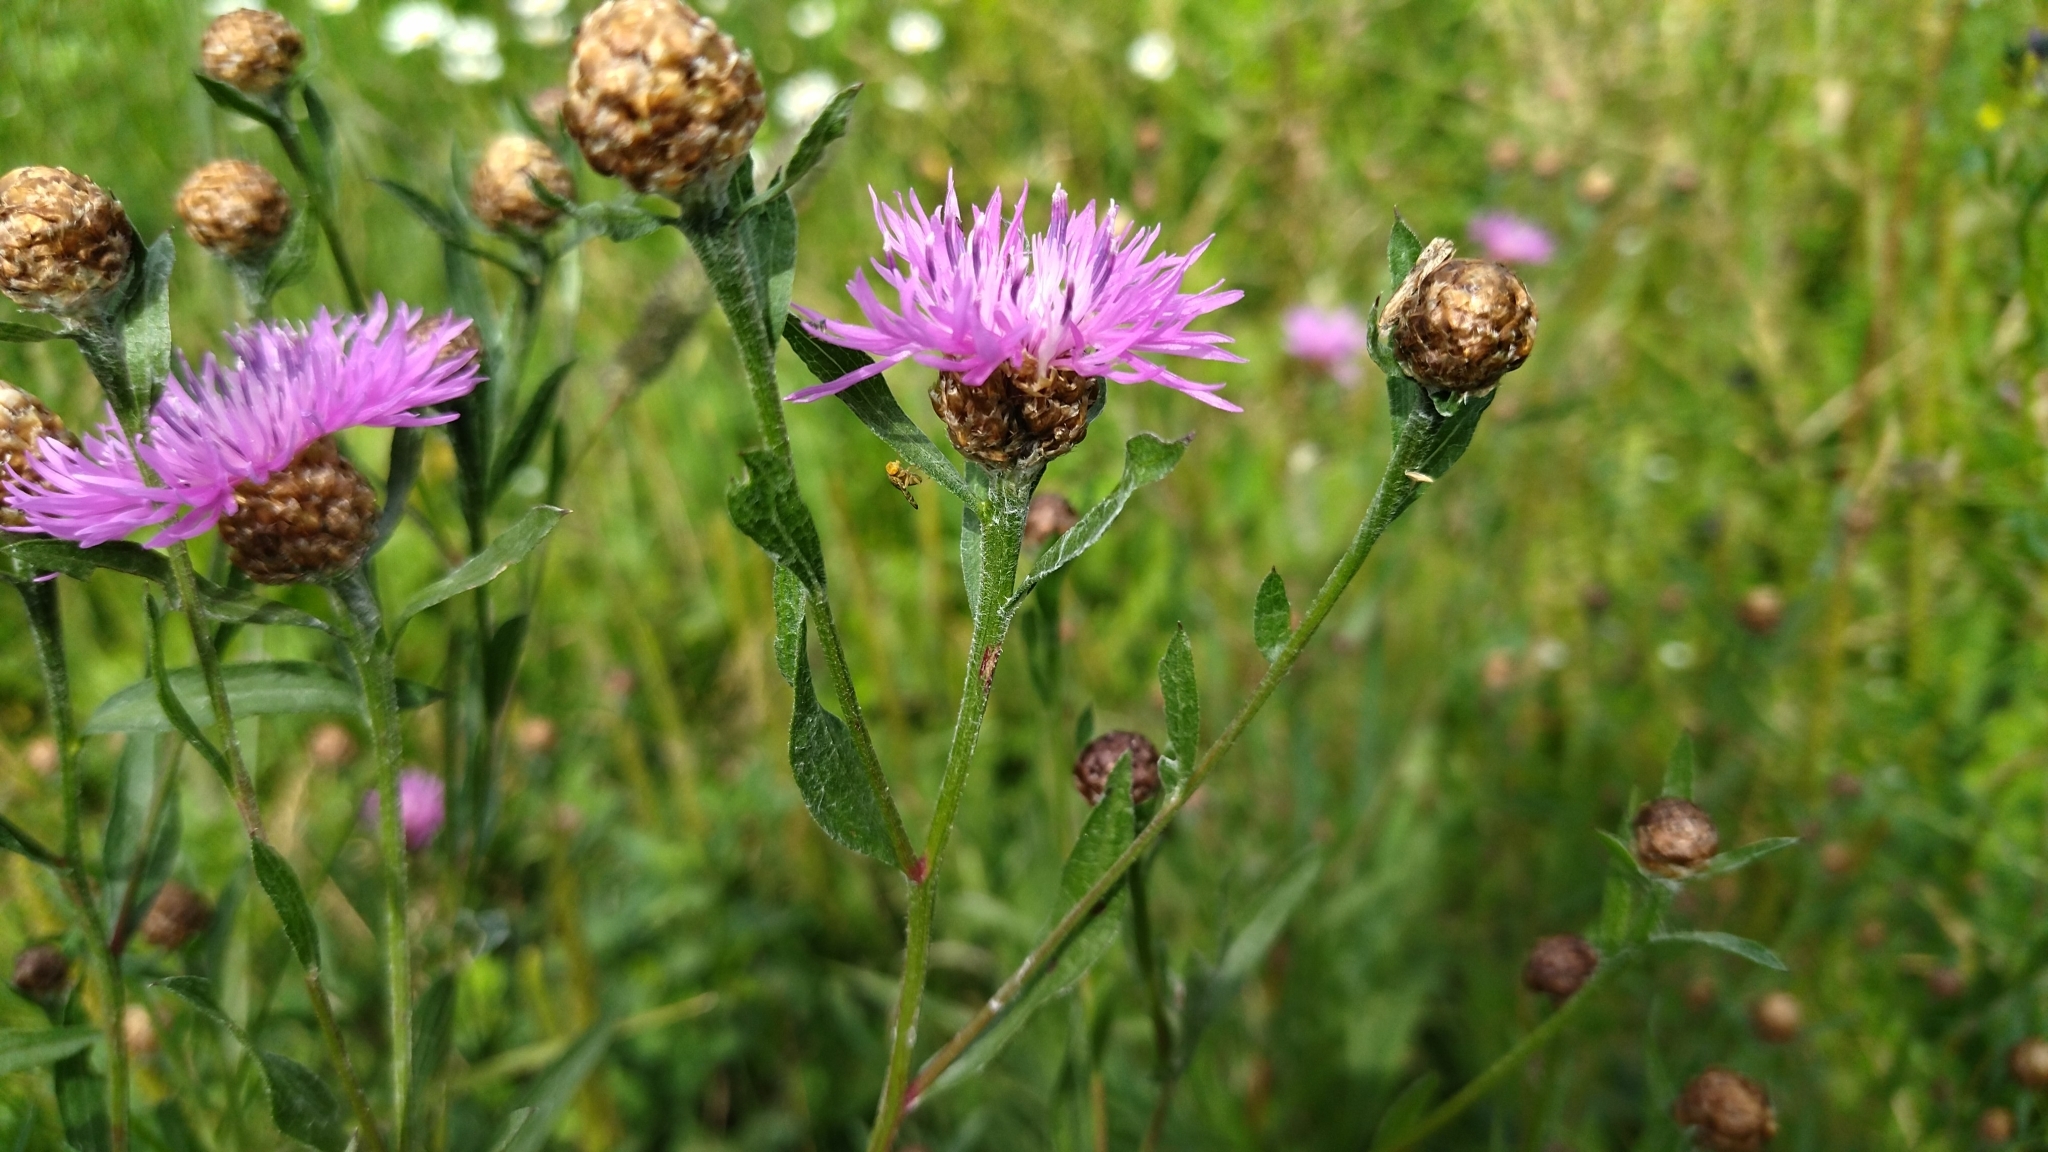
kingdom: Plantae
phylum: Tracheophyta
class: Magnoliopsida
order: Asterales
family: Asteraceae
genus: Centaurea
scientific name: Centaurea jacea
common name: Brown knapweed
